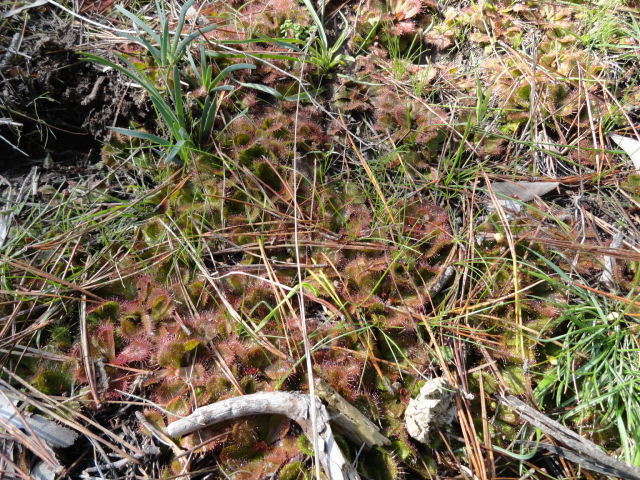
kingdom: Plantae
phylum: Tracheophyta
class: Magnoliopsida
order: Caryophyllales
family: Droseraceae
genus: Drosera
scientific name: Drosera aberrans
